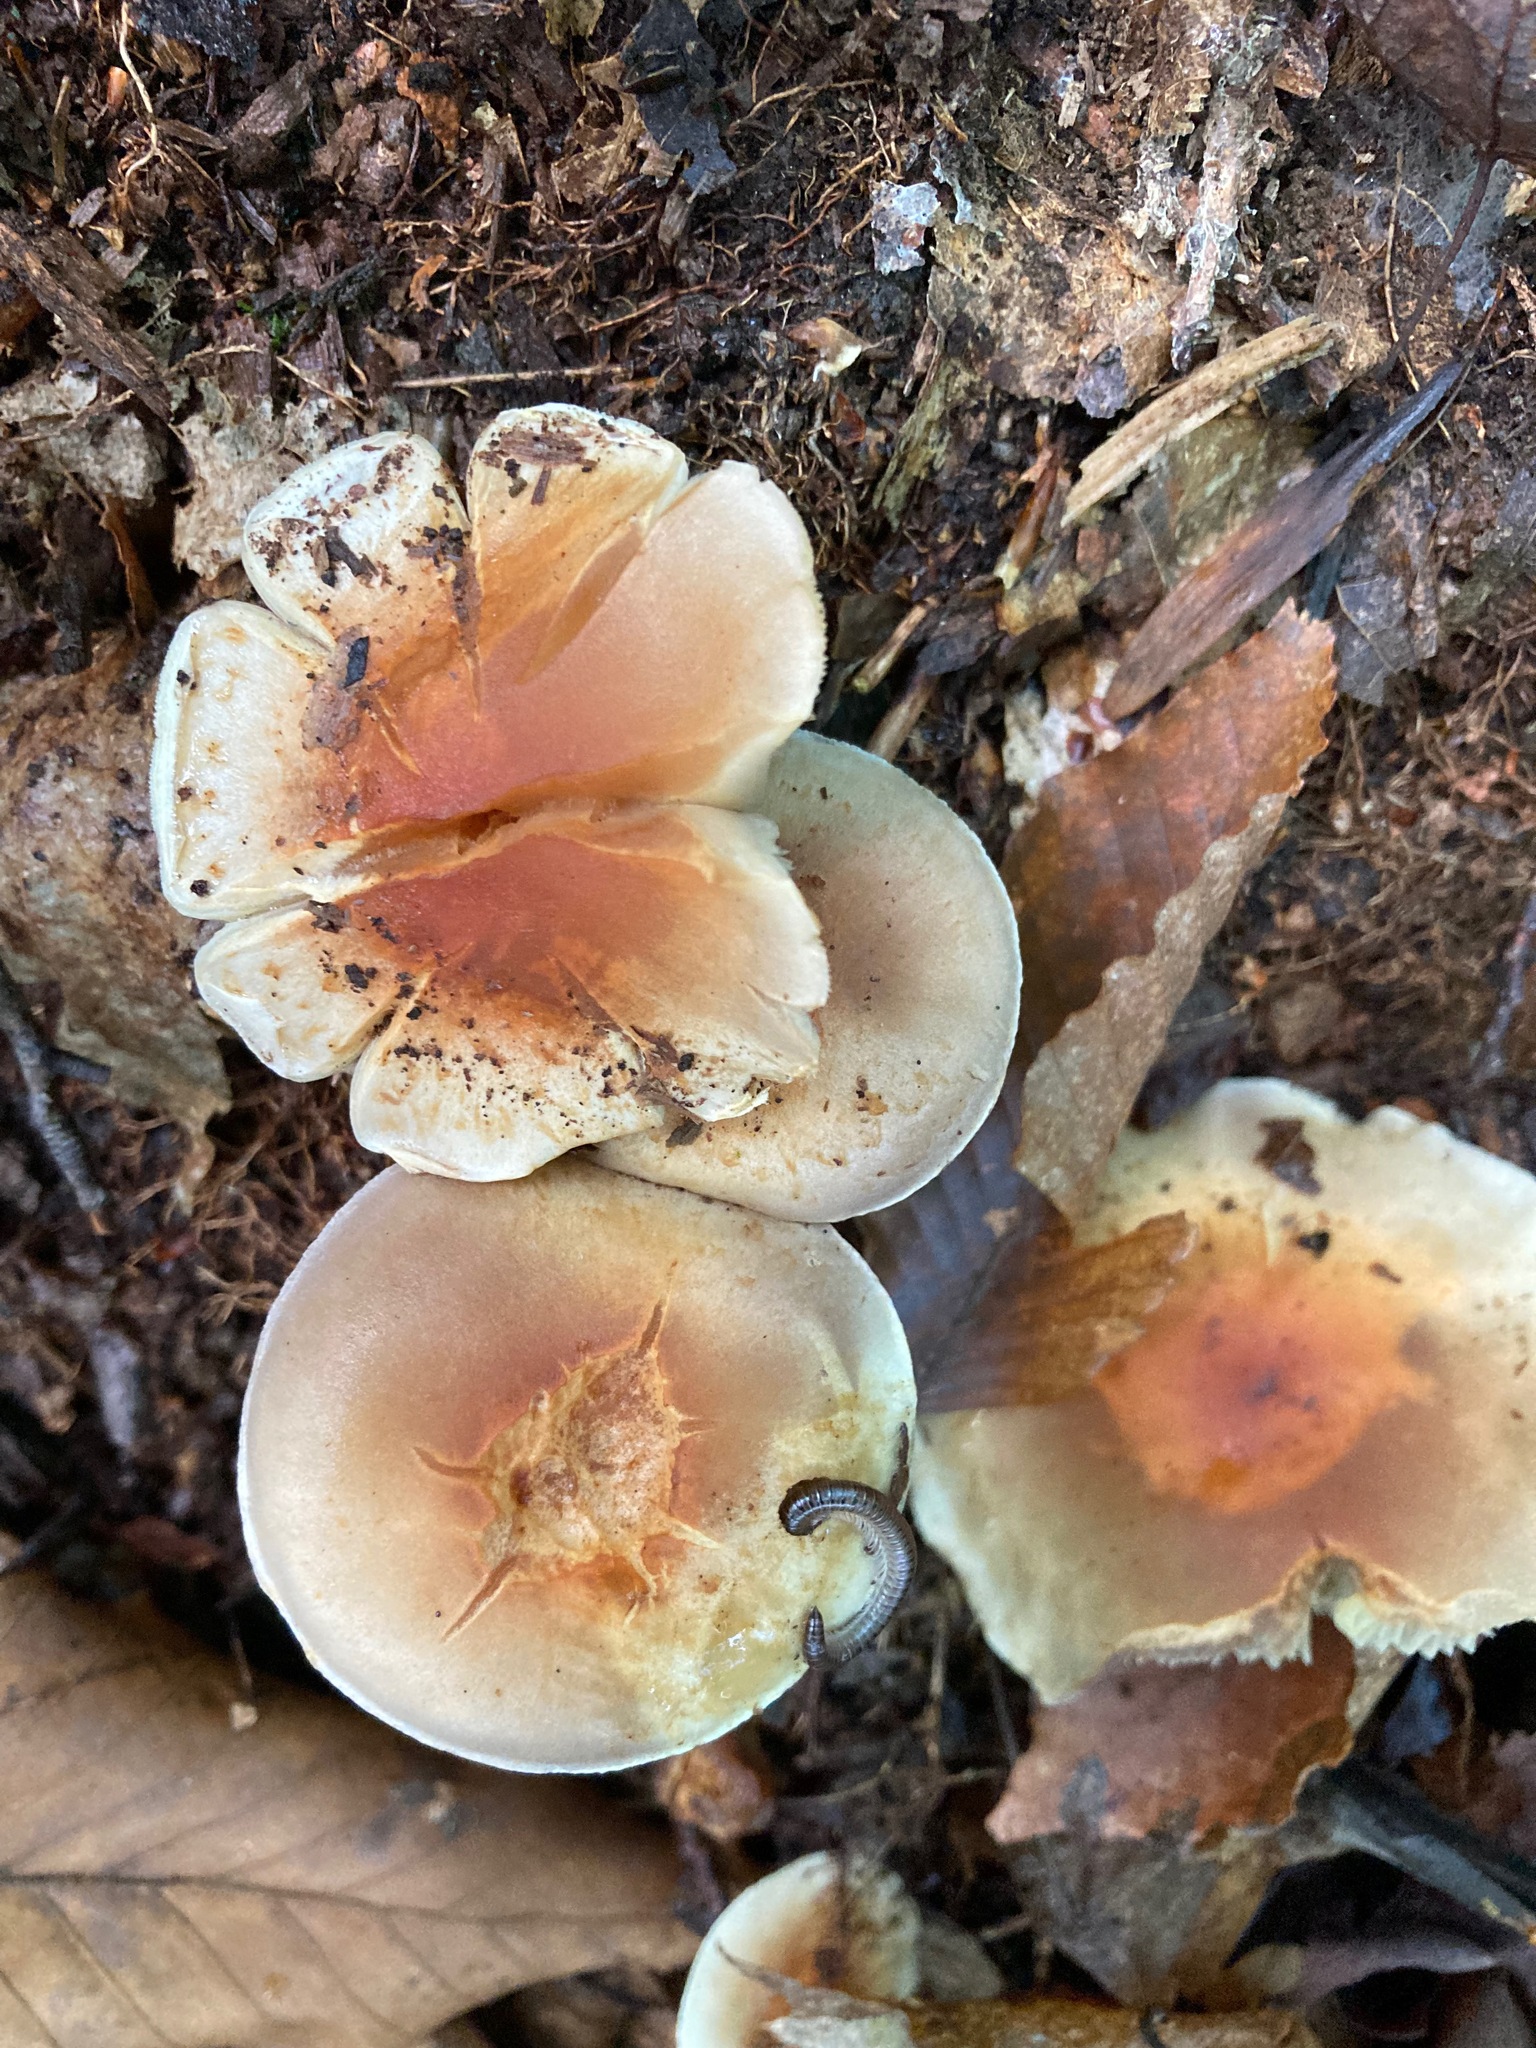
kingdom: Fungi
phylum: Basidiomycota
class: Agaricomycetes
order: Agaricales
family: Strophariaceae
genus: Hypholoma
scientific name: Hypholoma lateritium
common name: Brick caps
